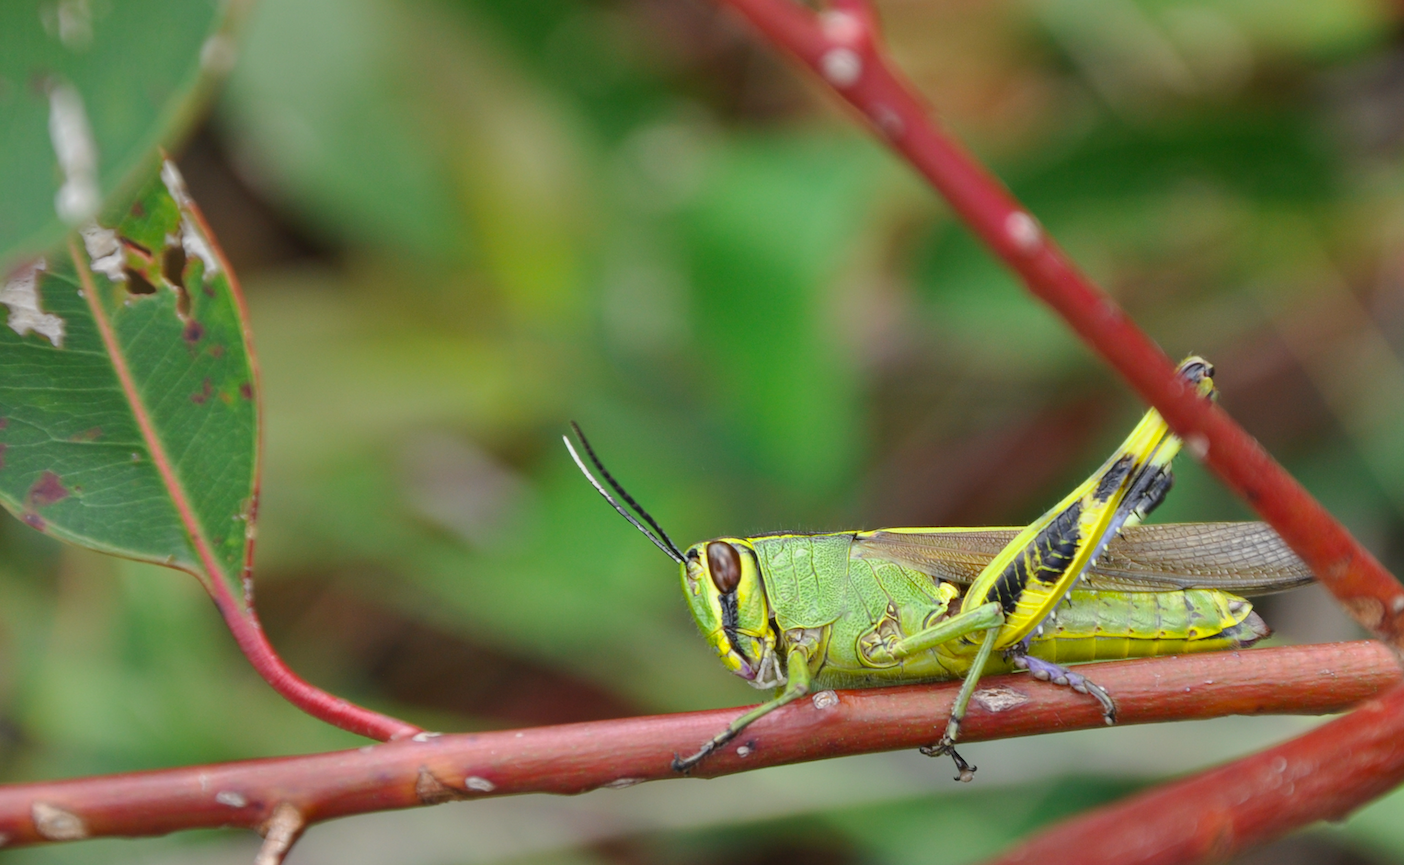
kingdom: Animalia
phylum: Arthropoda
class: Insecta
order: Orthoptera
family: Acrididae
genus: Heteracris
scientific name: Heteracris finoti
